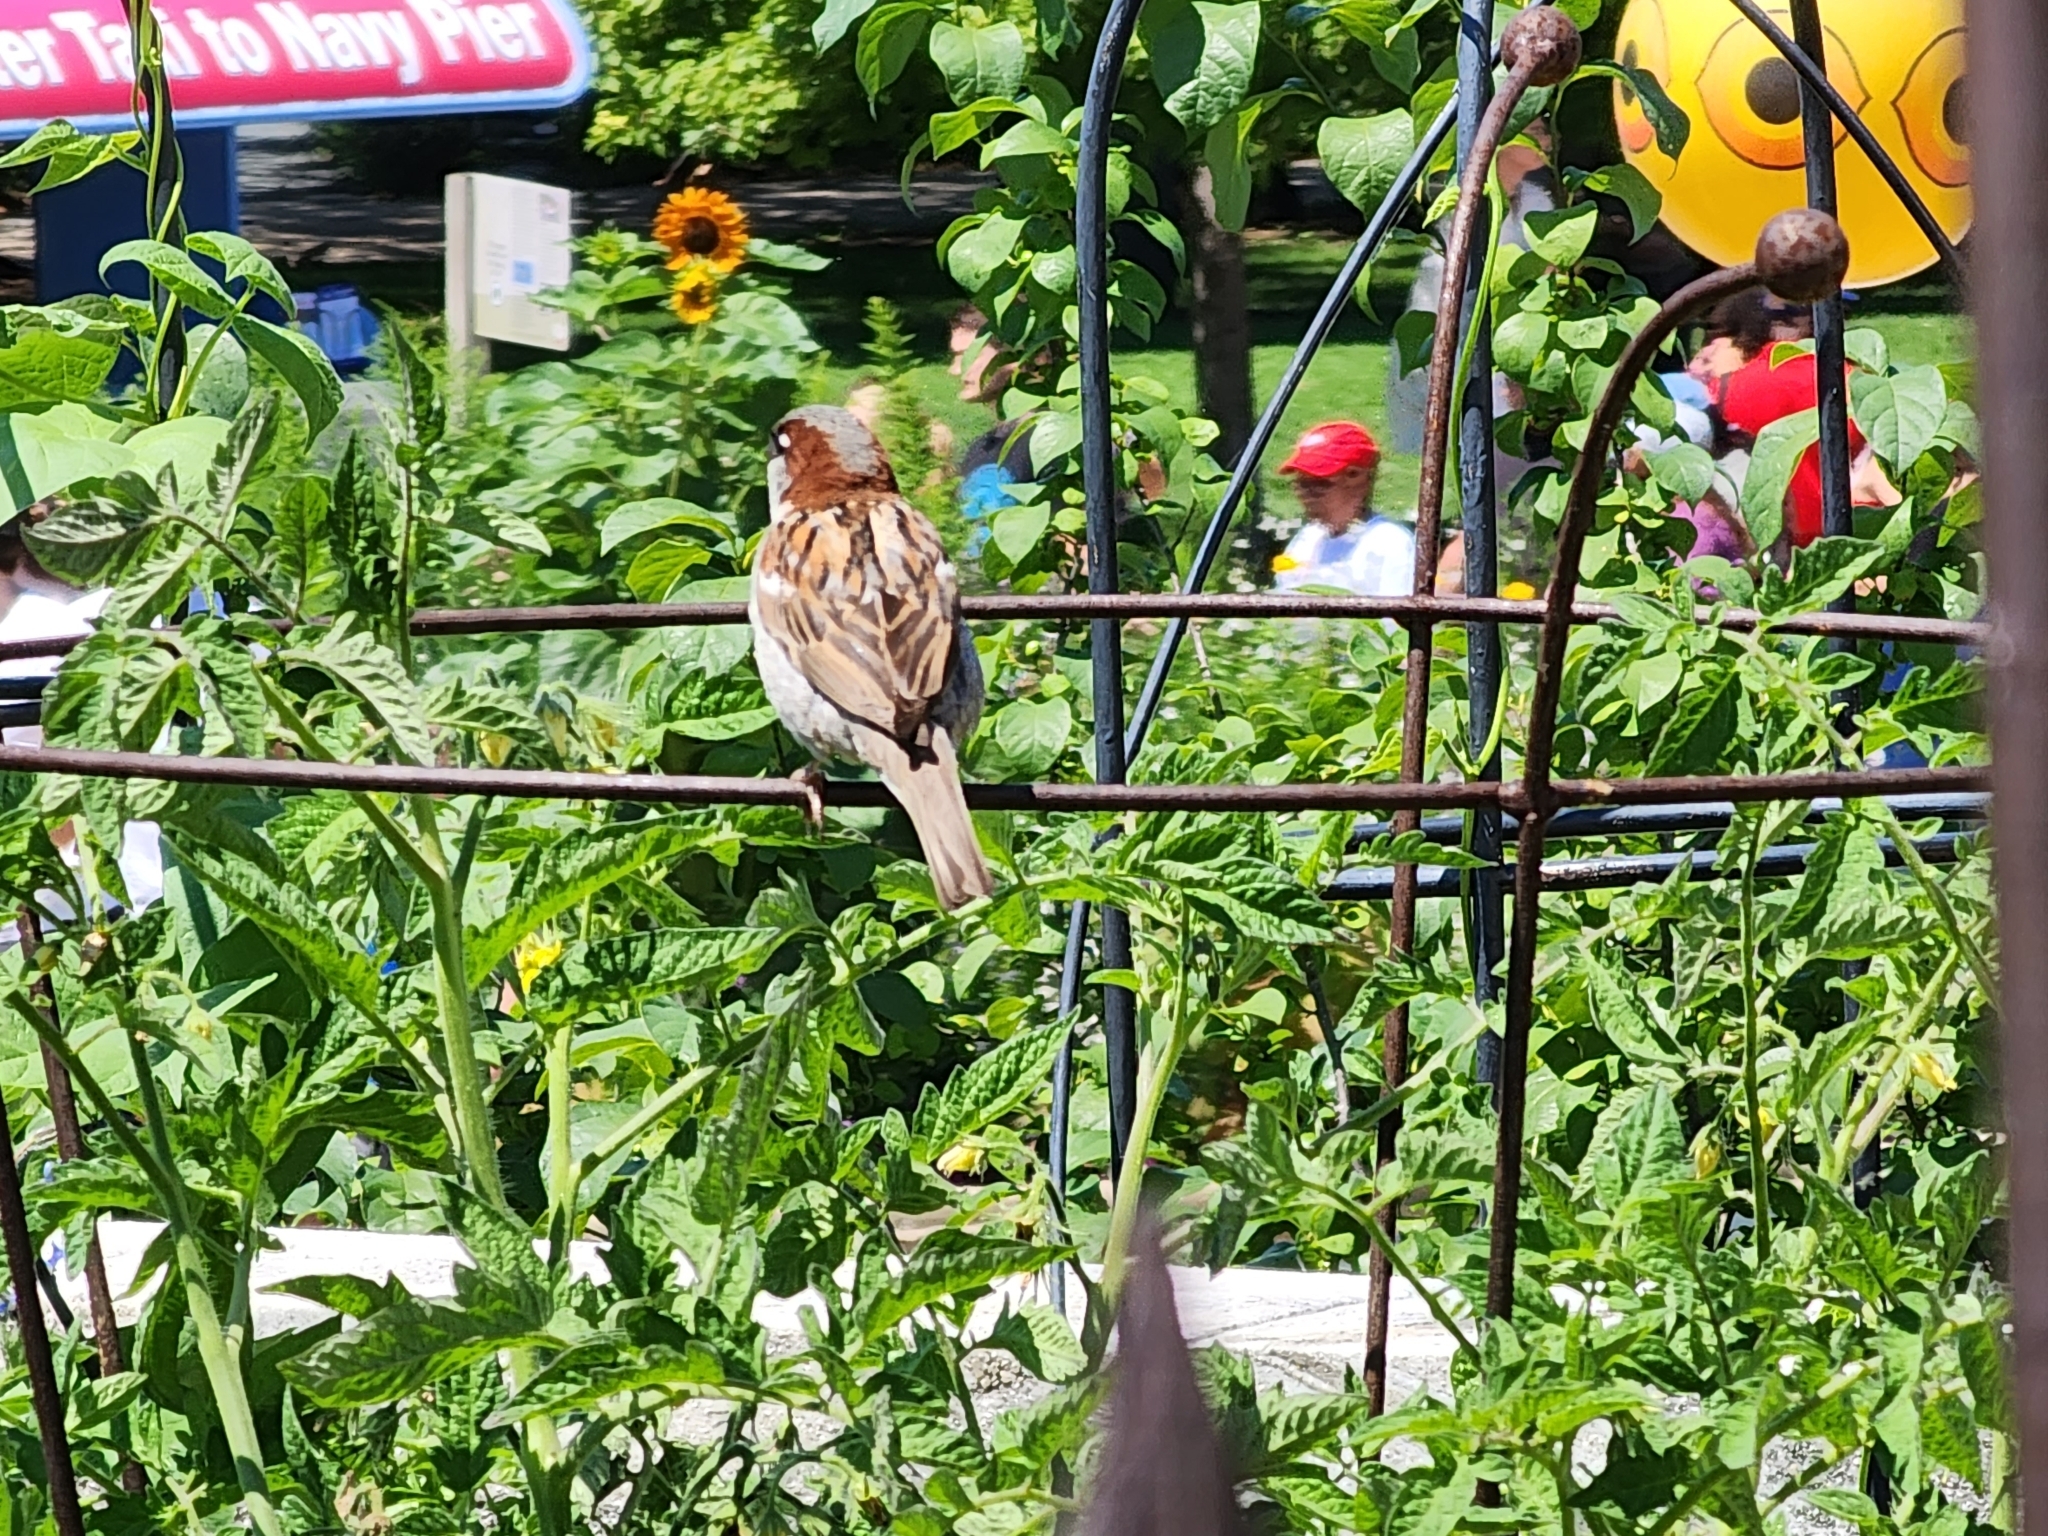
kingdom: Animalia
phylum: Chordata
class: Aves
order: Passeriformes
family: Passeridae
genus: Passer
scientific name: Passer domesticus
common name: House sparrow
